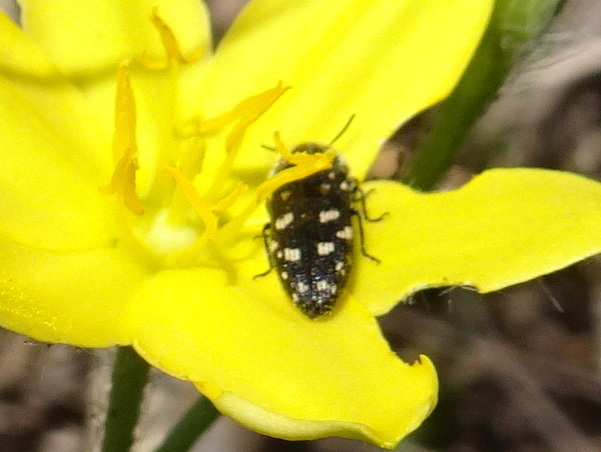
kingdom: Animalia
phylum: Arthropoda
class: Insecta
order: Coleoptera
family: Buprestidae
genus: Acmaeodera
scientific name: Acmaeodera tubulus
